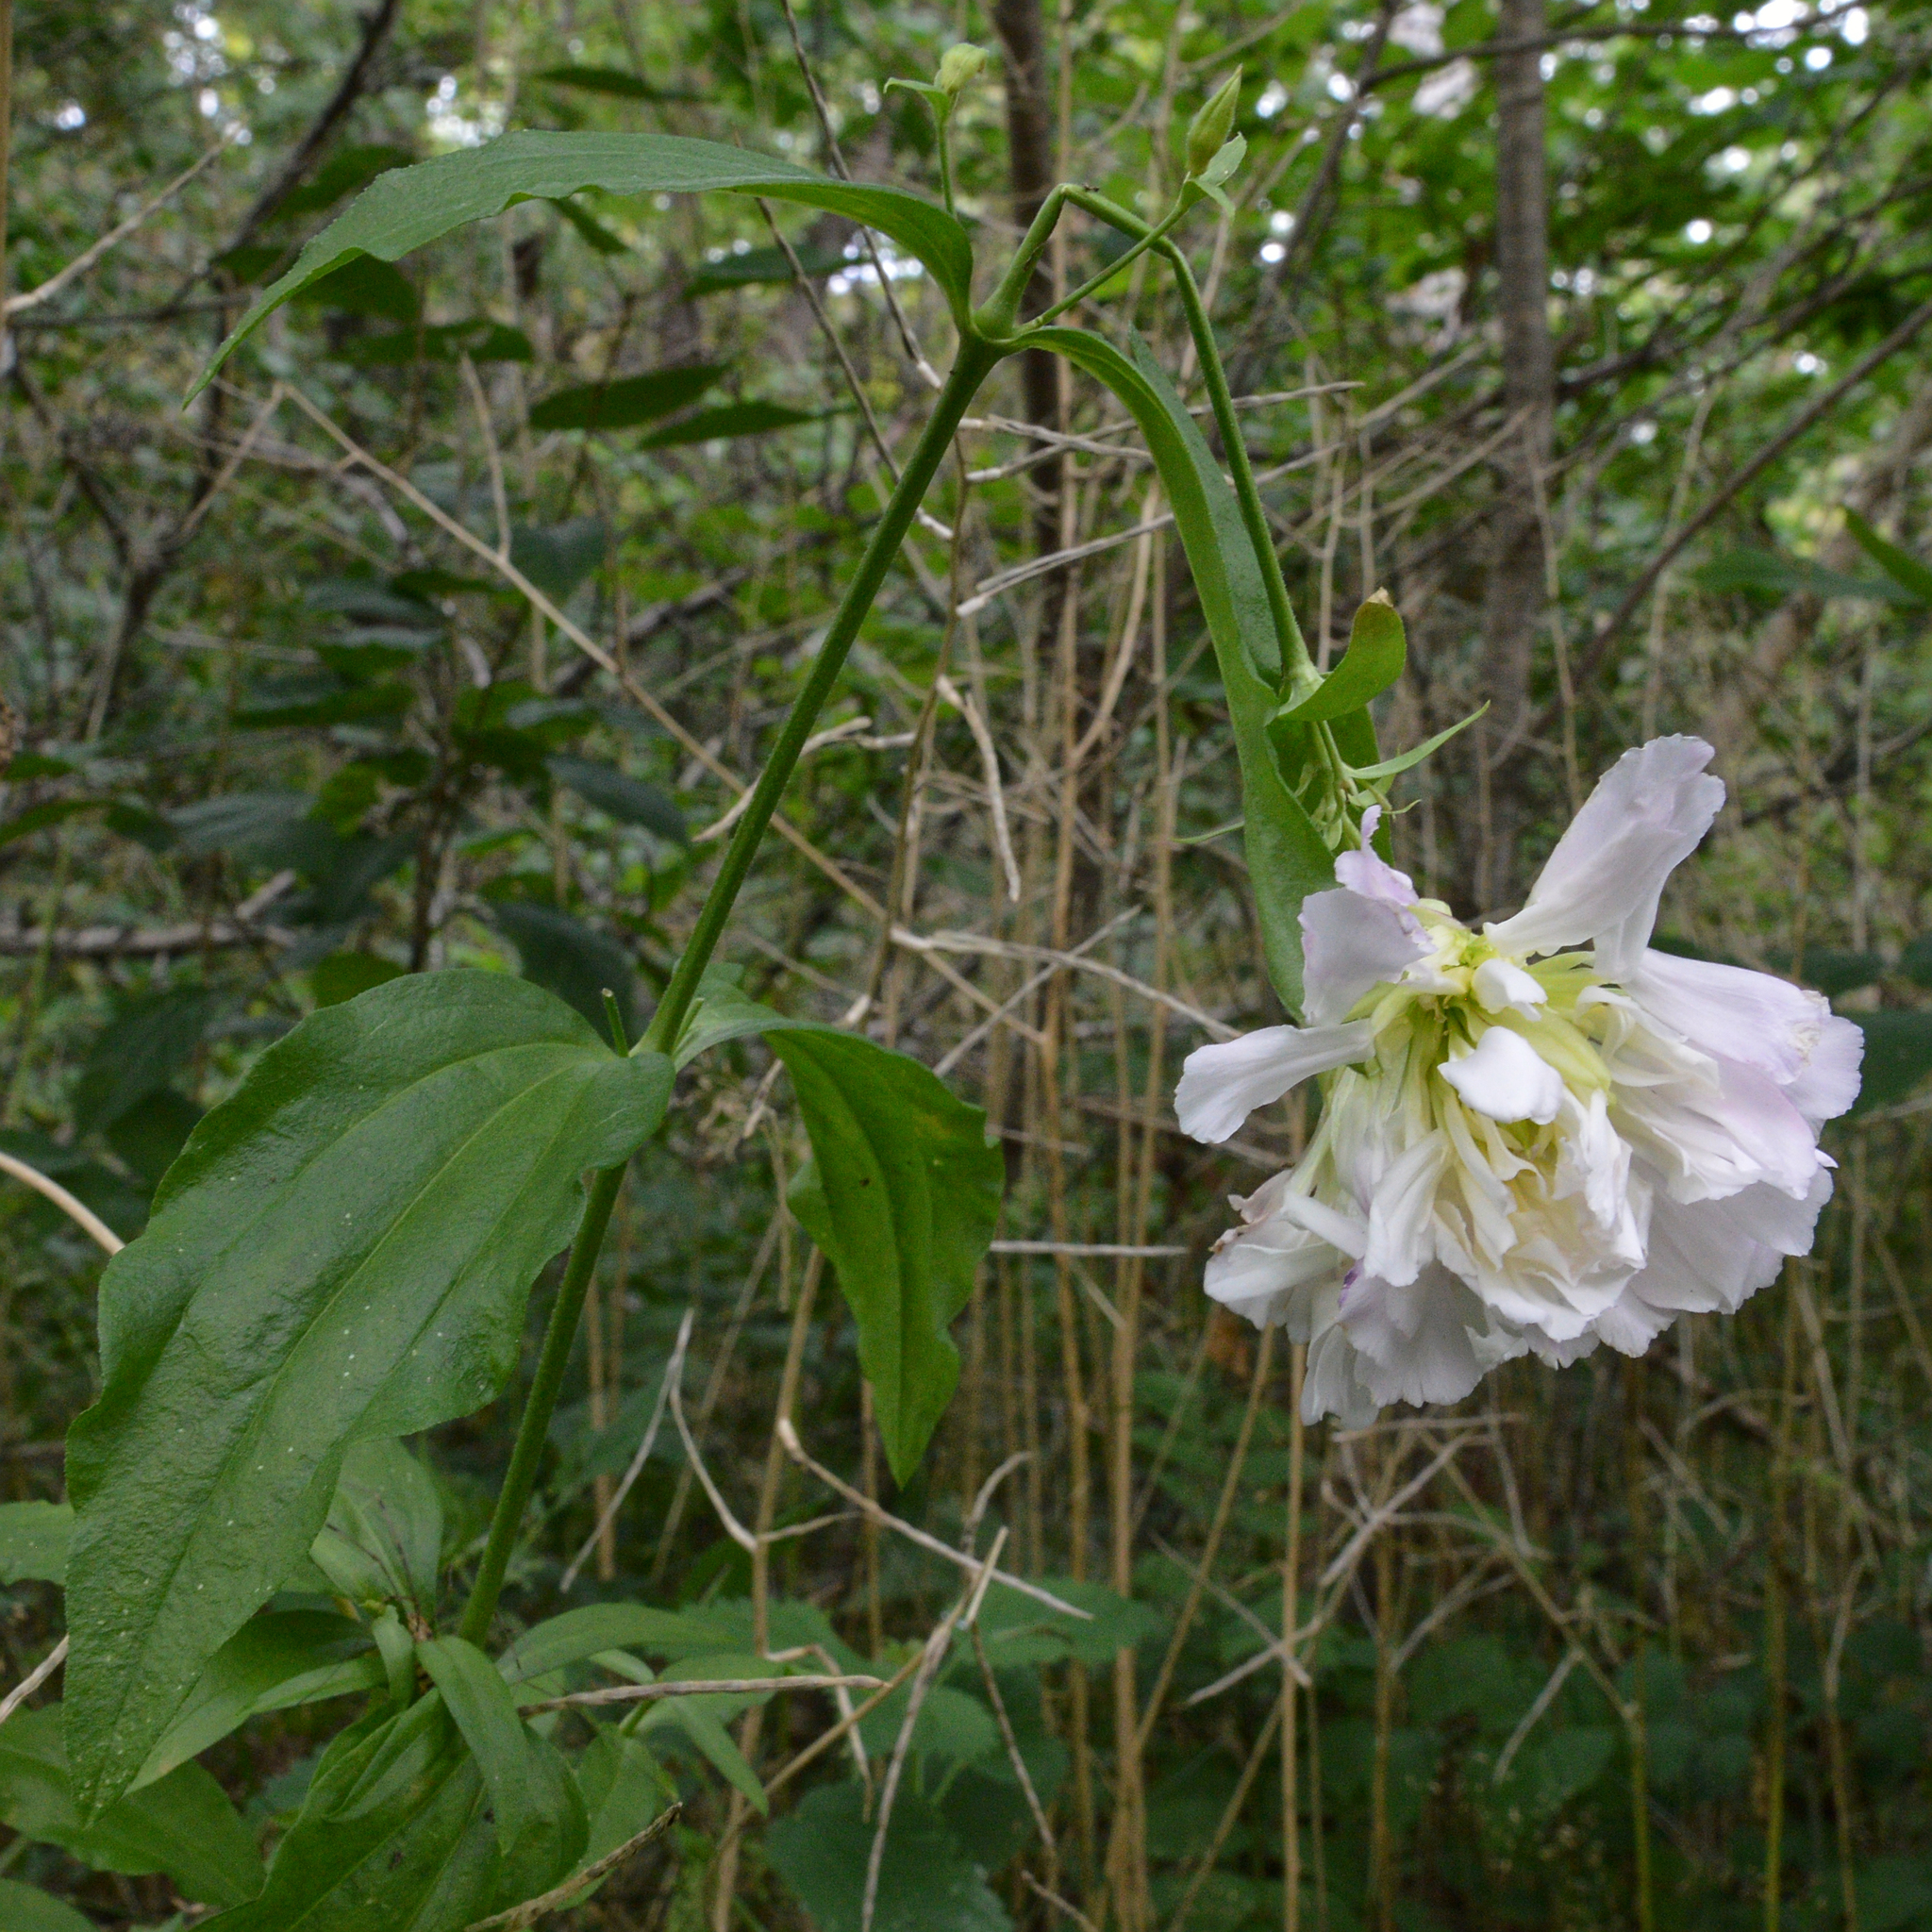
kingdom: Plantae
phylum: Tracheophyta
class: Magnoliopsida
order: Caryophyllales
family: Caryophyllaceae
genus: Saponaria
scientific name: Saponaria officinalis
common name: Soapwort
